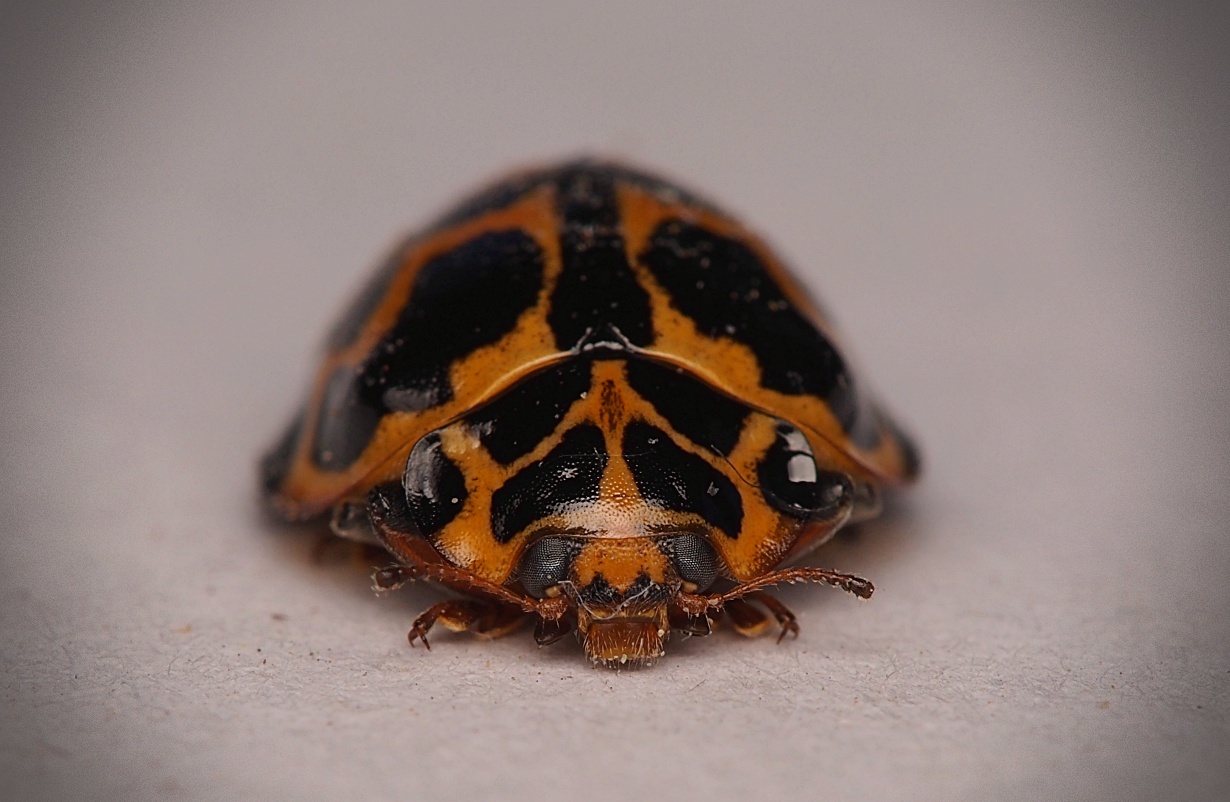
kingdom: Animalia
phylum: Arthropoda
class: Insecta
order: Coleoptera
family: Coccinellidae
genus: Cleobora
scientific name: Cleobora
